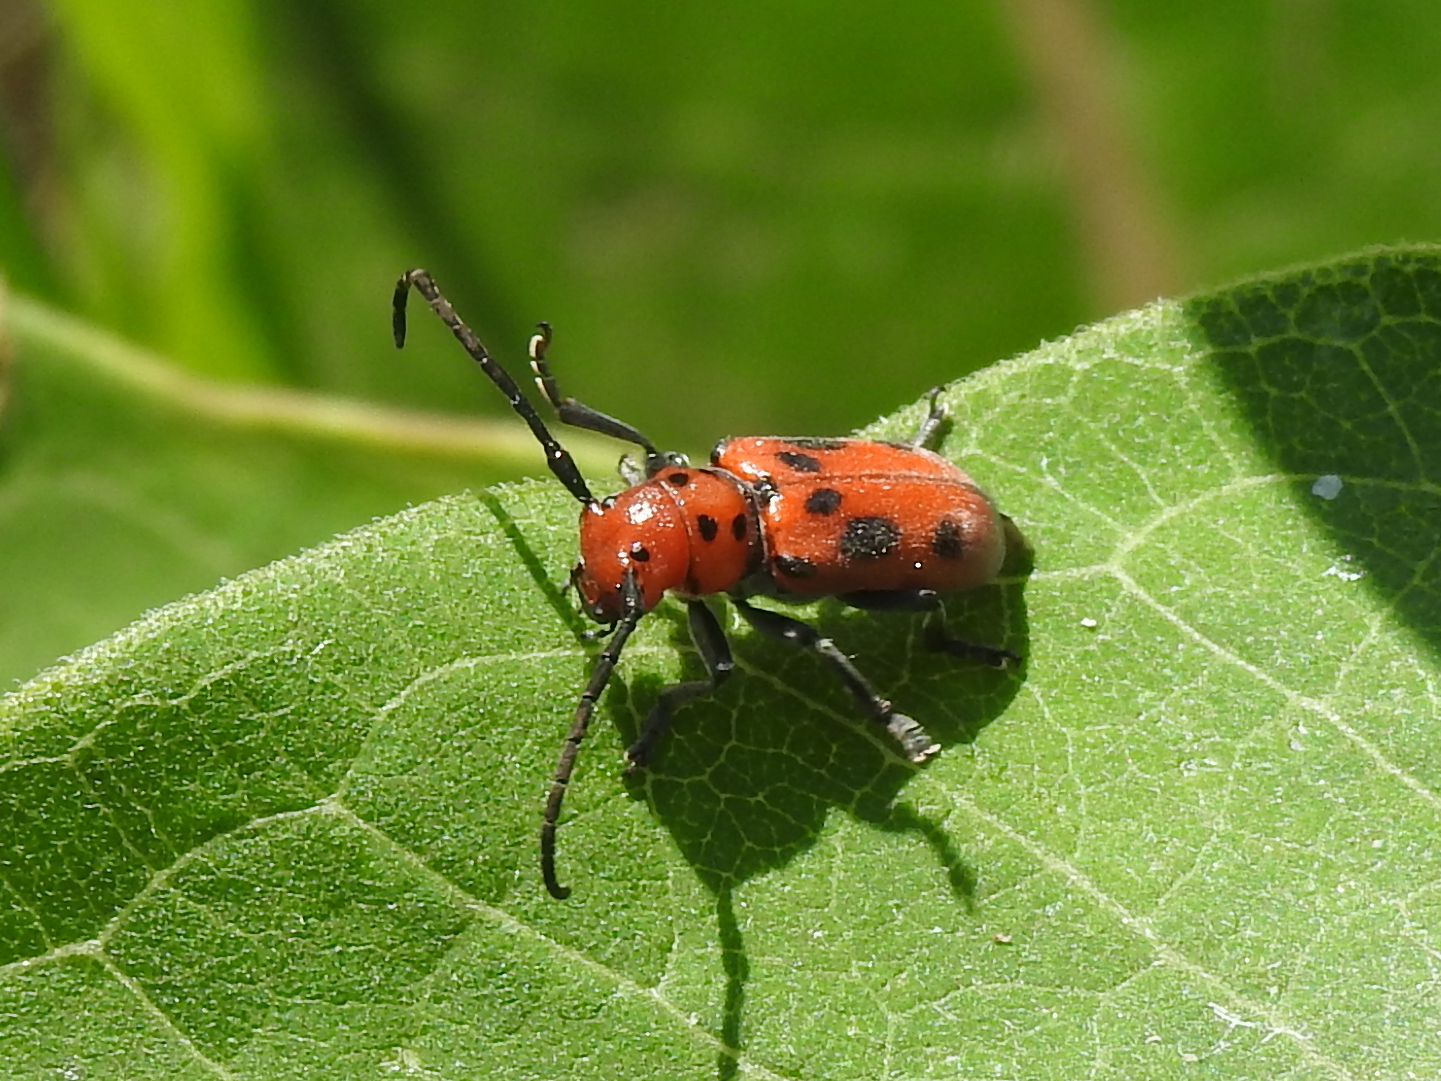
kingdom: Animalia
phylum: Arthropoda
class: Insecta
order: Coleoptera
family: Cerambycidae
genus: Tetraopes
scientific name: Tetraopes tetrophthalmus
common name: Red milkweed beetle
